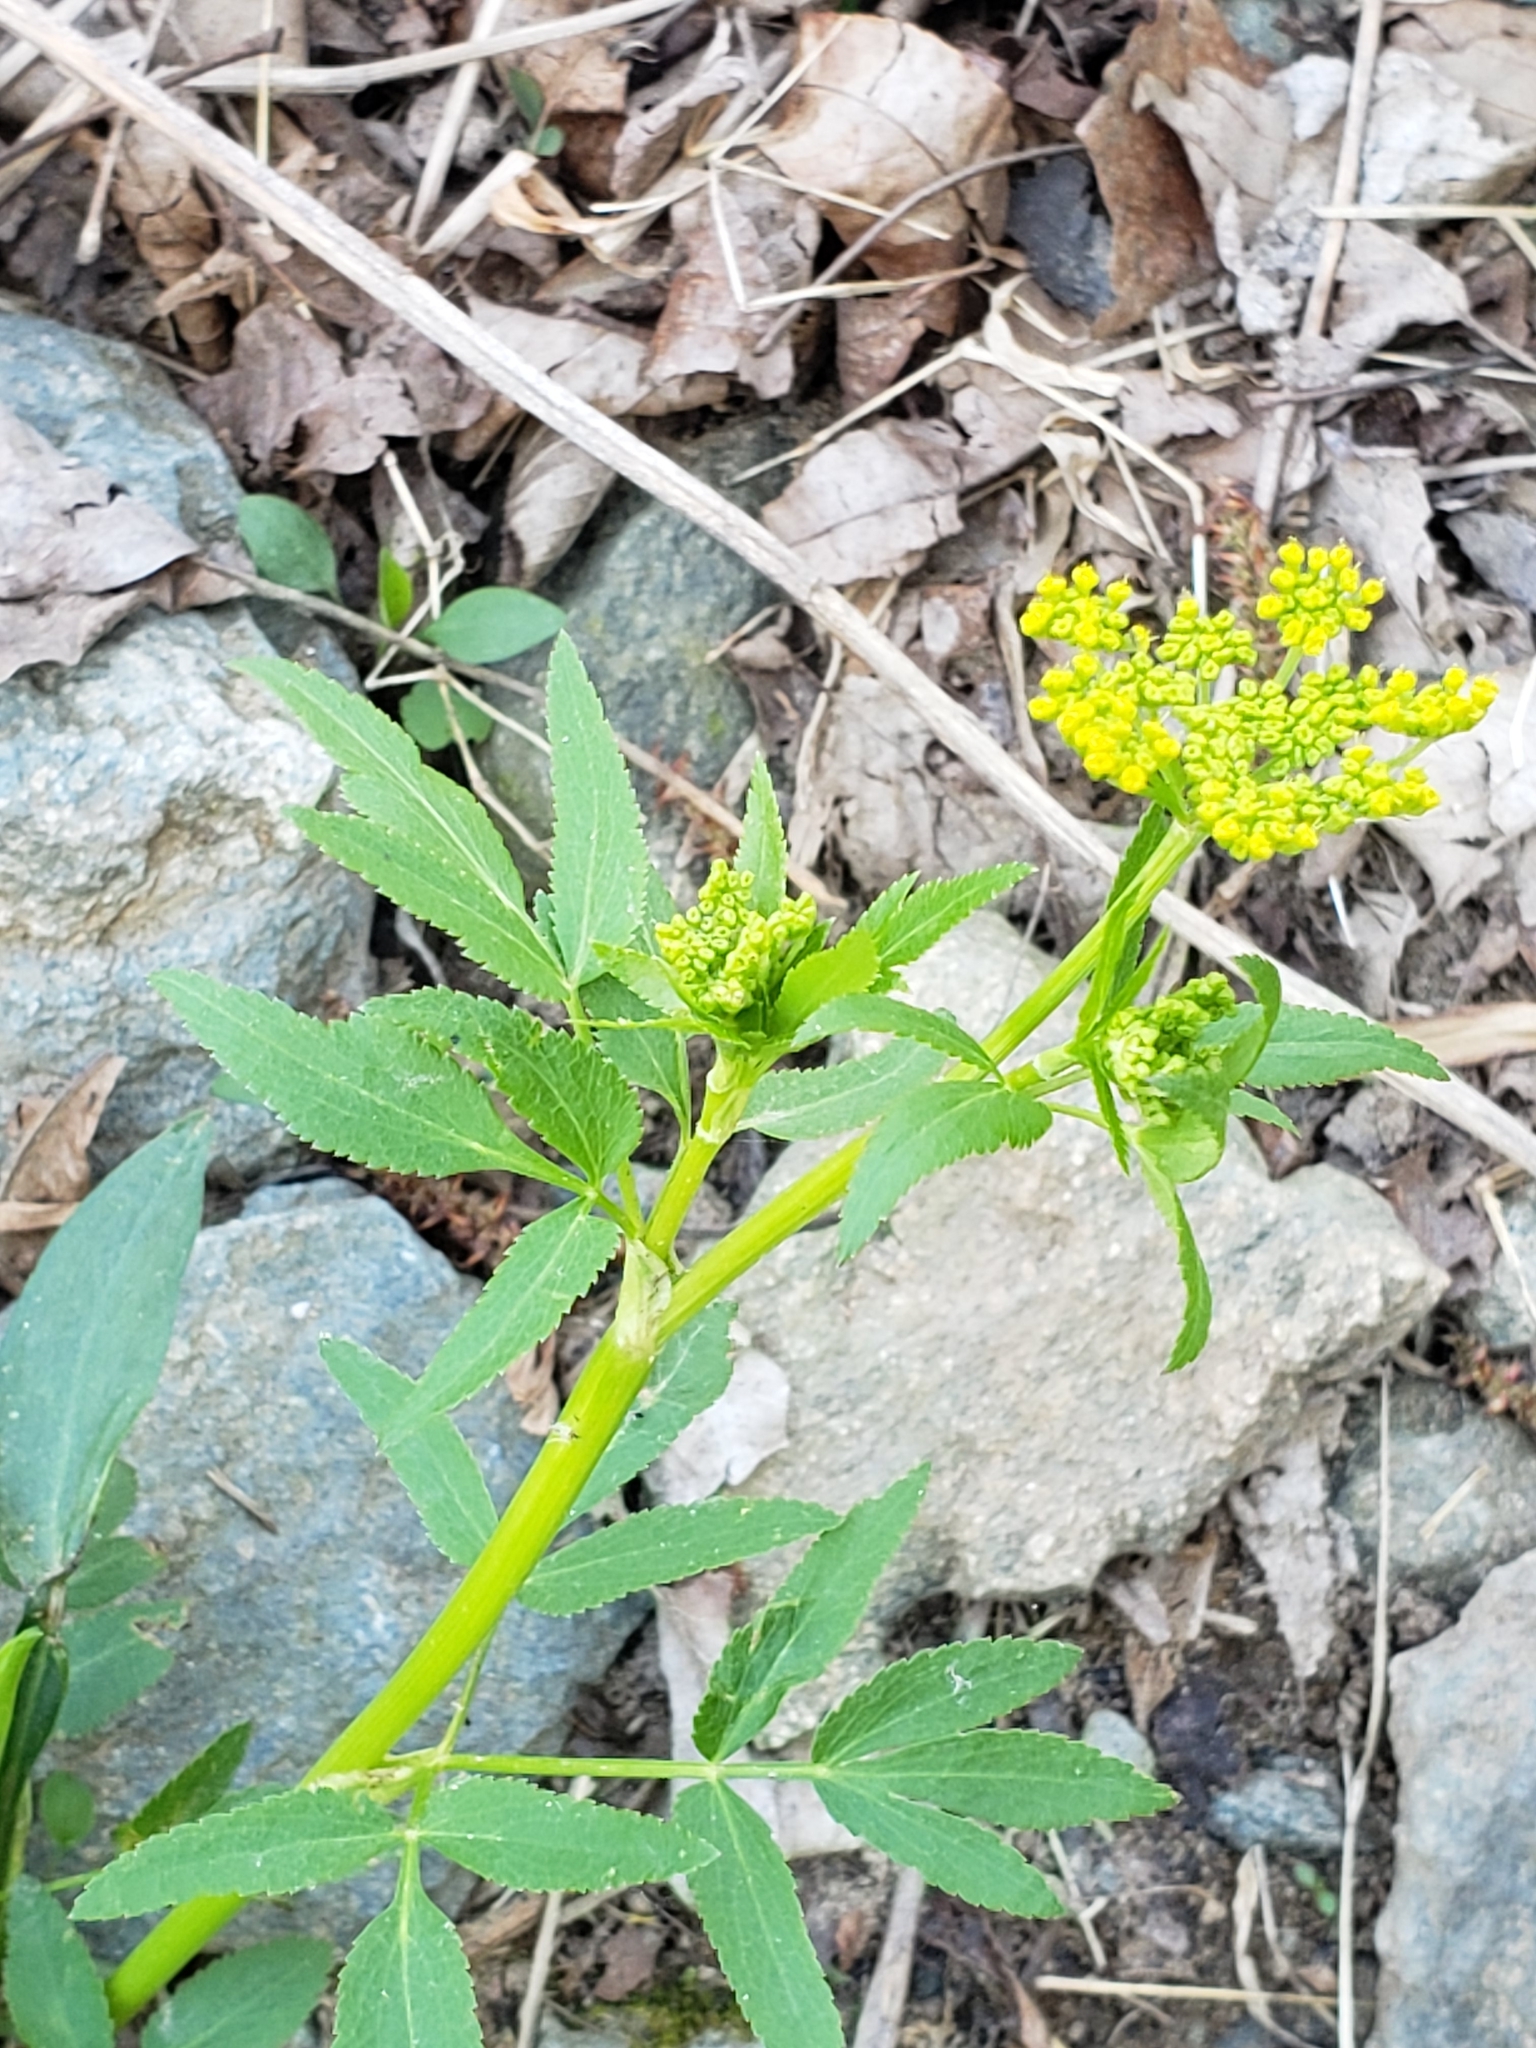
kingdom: Plantae
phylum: Tracheophyta
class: Magnoliopsida
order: Apiales
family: Apiaceae
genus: Zizia
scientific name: Zizia aurea
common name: Golden alexanders
